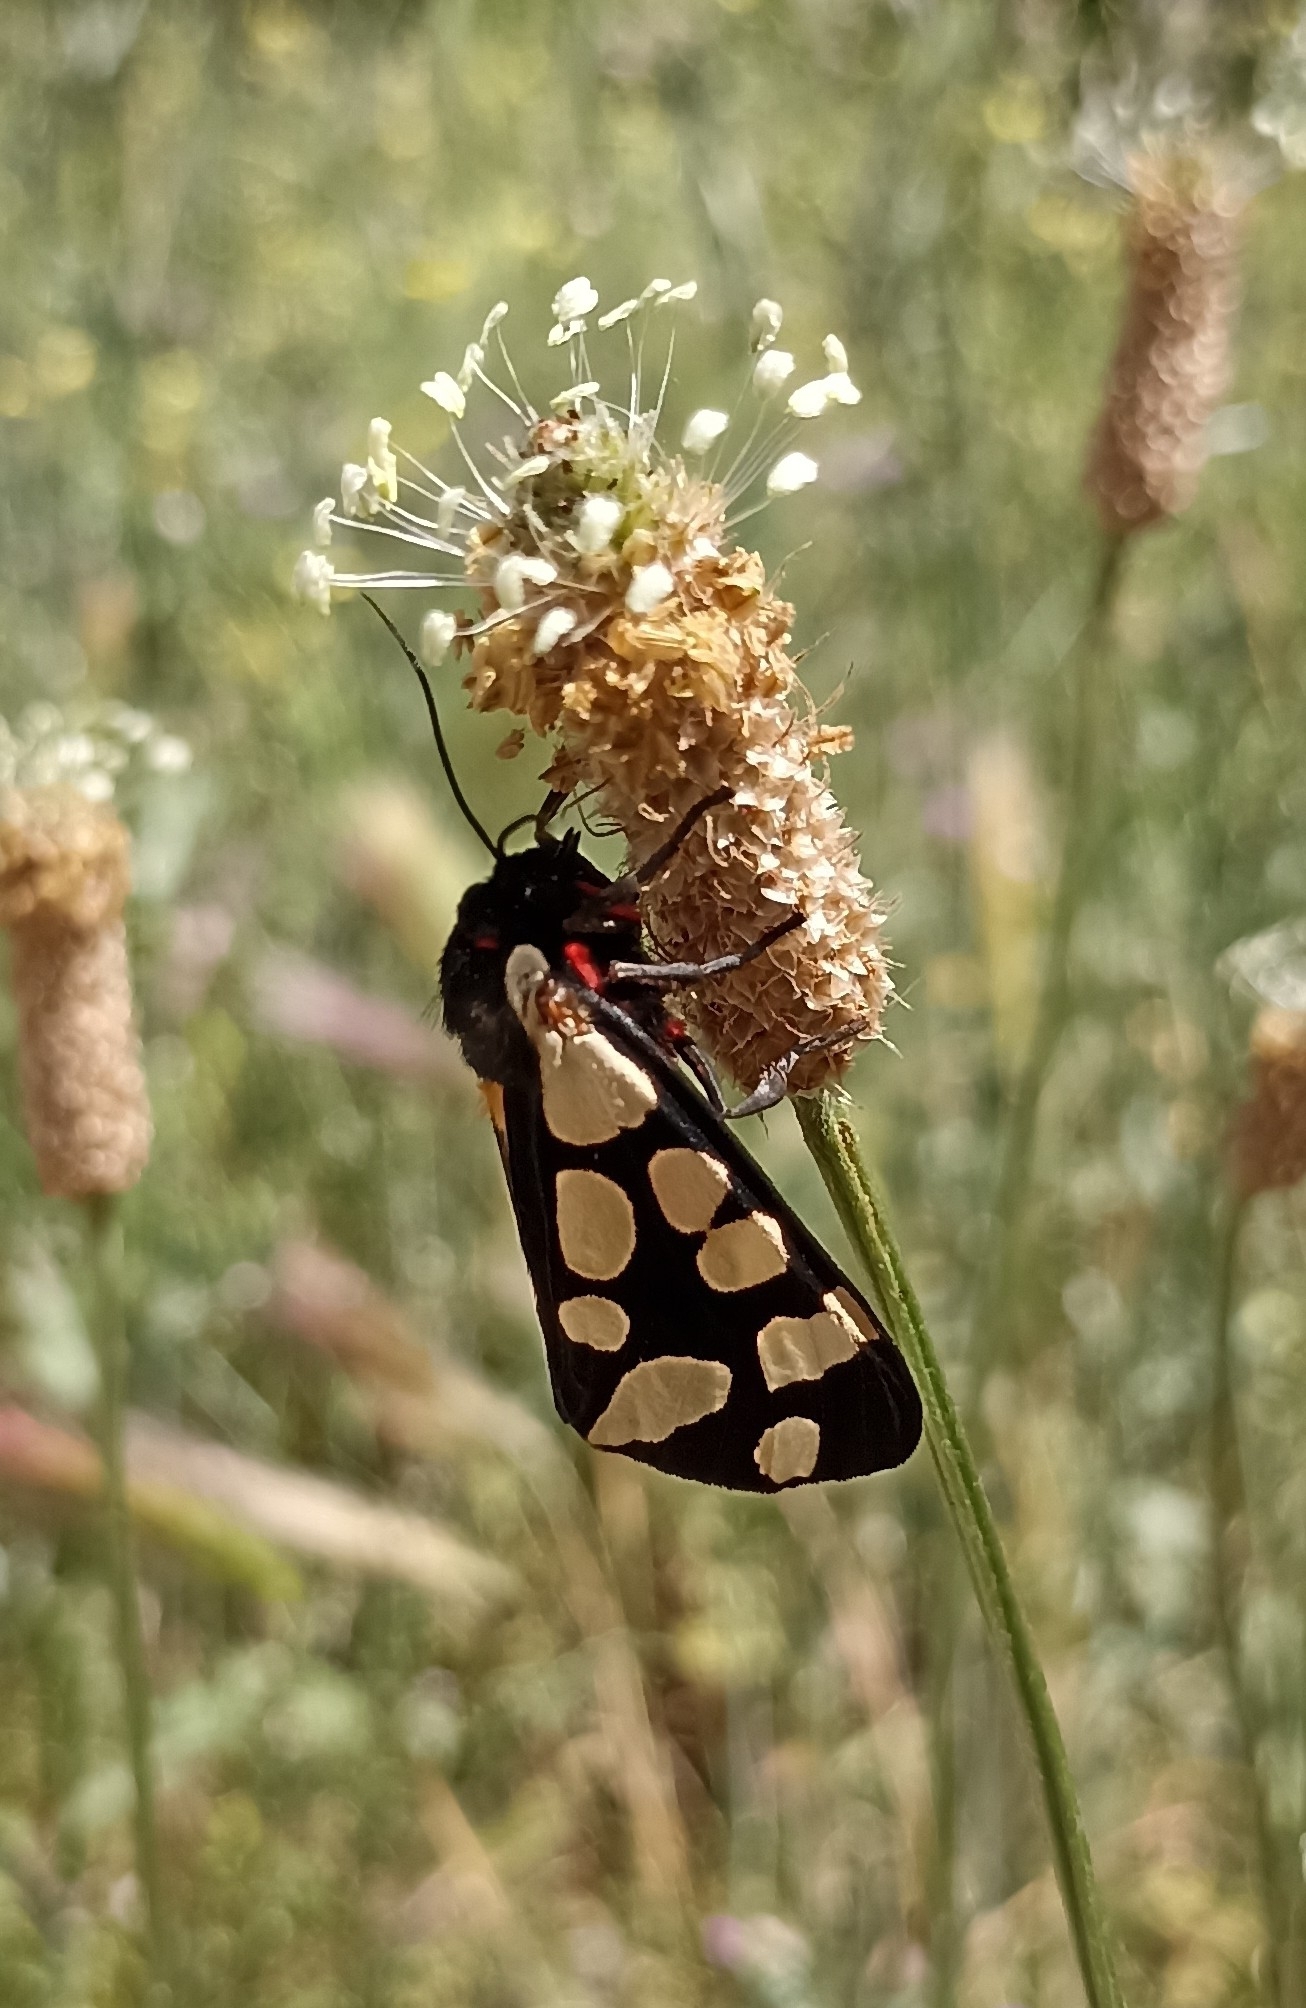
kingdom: Animalia
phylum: Arthropoda
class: Insecta
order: Lepidoptera
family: Erebidae
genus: Epicallia
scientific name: Epicallia villica
